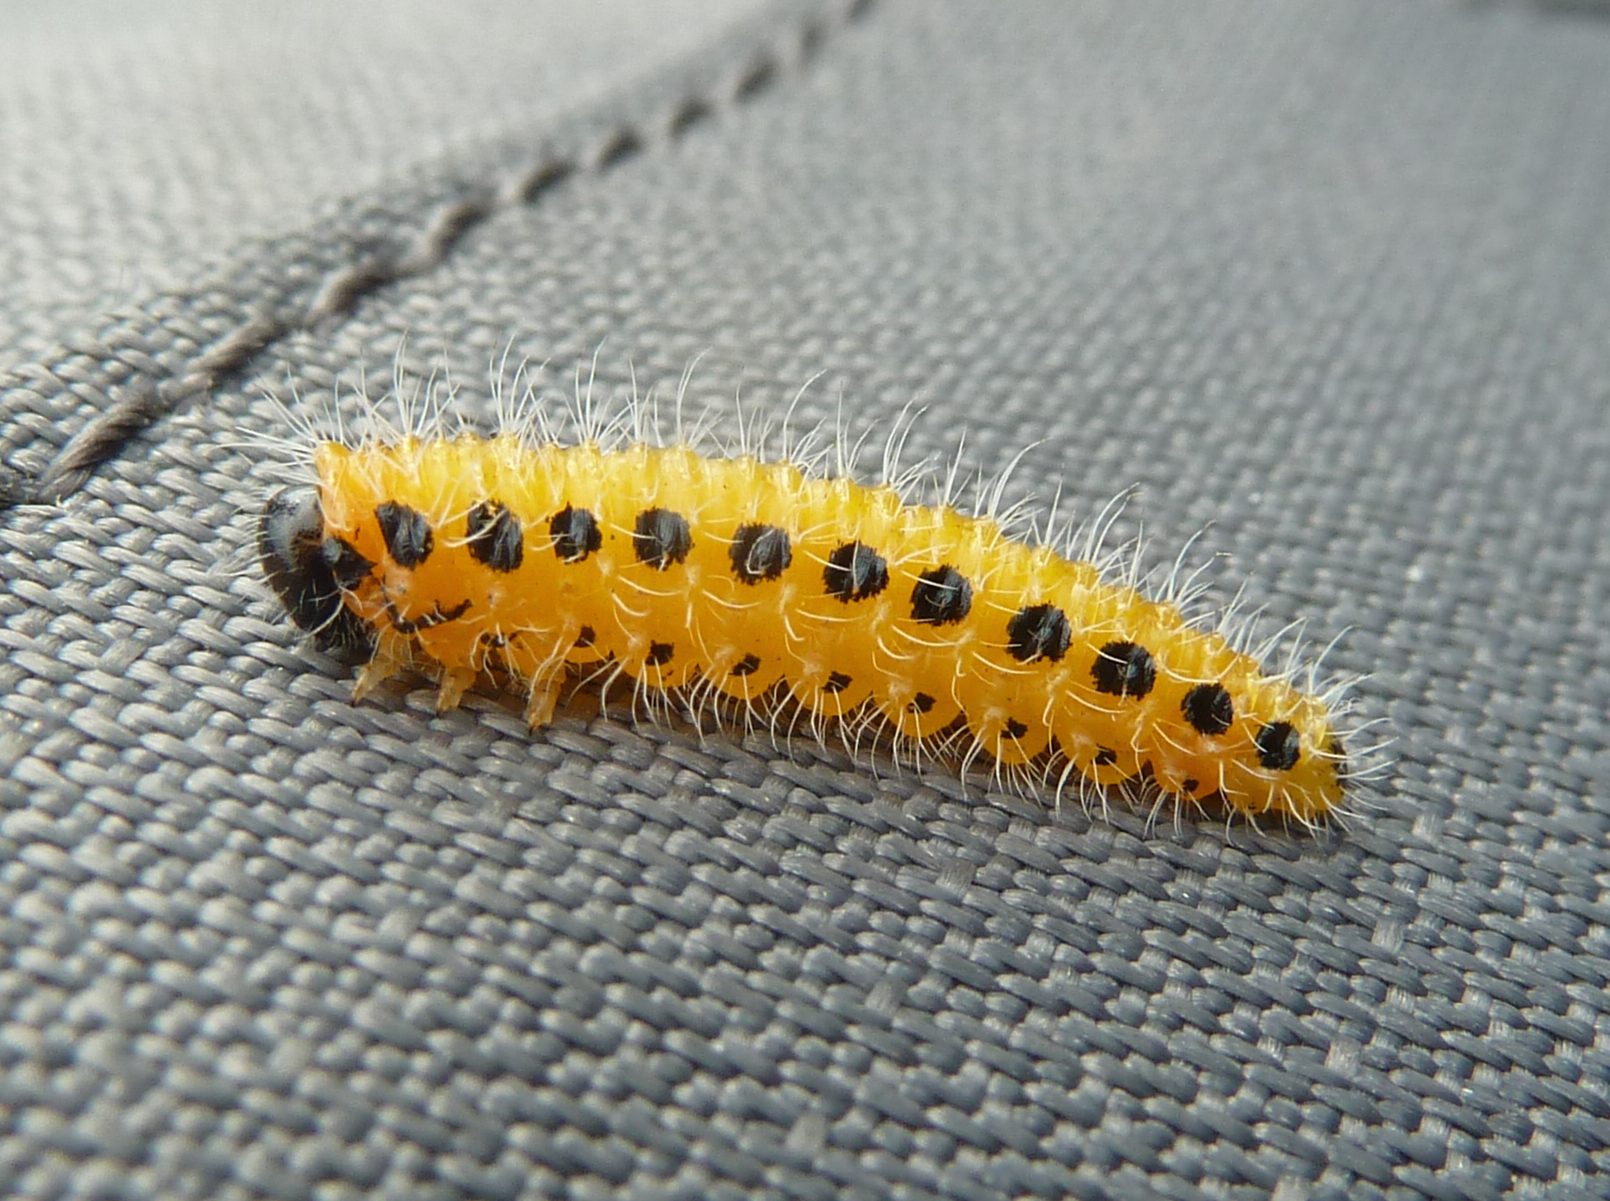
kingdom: Animalia
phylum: Arthropoda
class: Insecta
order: Hymenoptera
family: Tenthredinidae
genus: Cladius
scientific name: Cladius grandis
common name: Common sawfly
